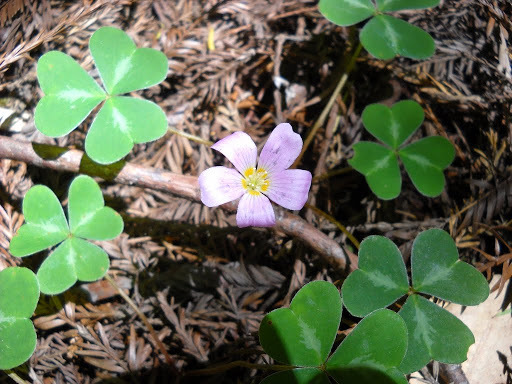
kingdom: Plantae
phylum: Tracheophyta
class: Magnoliopsida
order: Oxalidales
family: Oxalidaceae
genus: Oxalis
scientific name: Oxalis oregana
